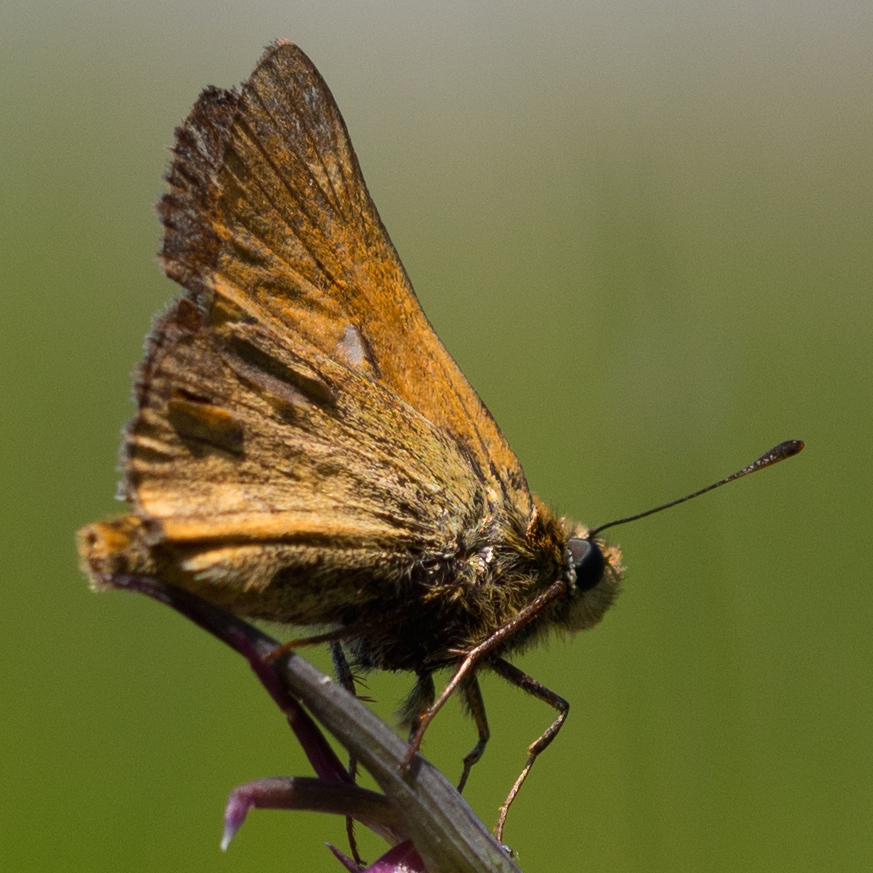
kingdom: Animalia
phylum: Arthropoda
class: Insecta
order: Lepidoptera
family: Hesperiidae
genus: Ochlodes
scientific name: Ochlodes venata
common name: Large skipper
